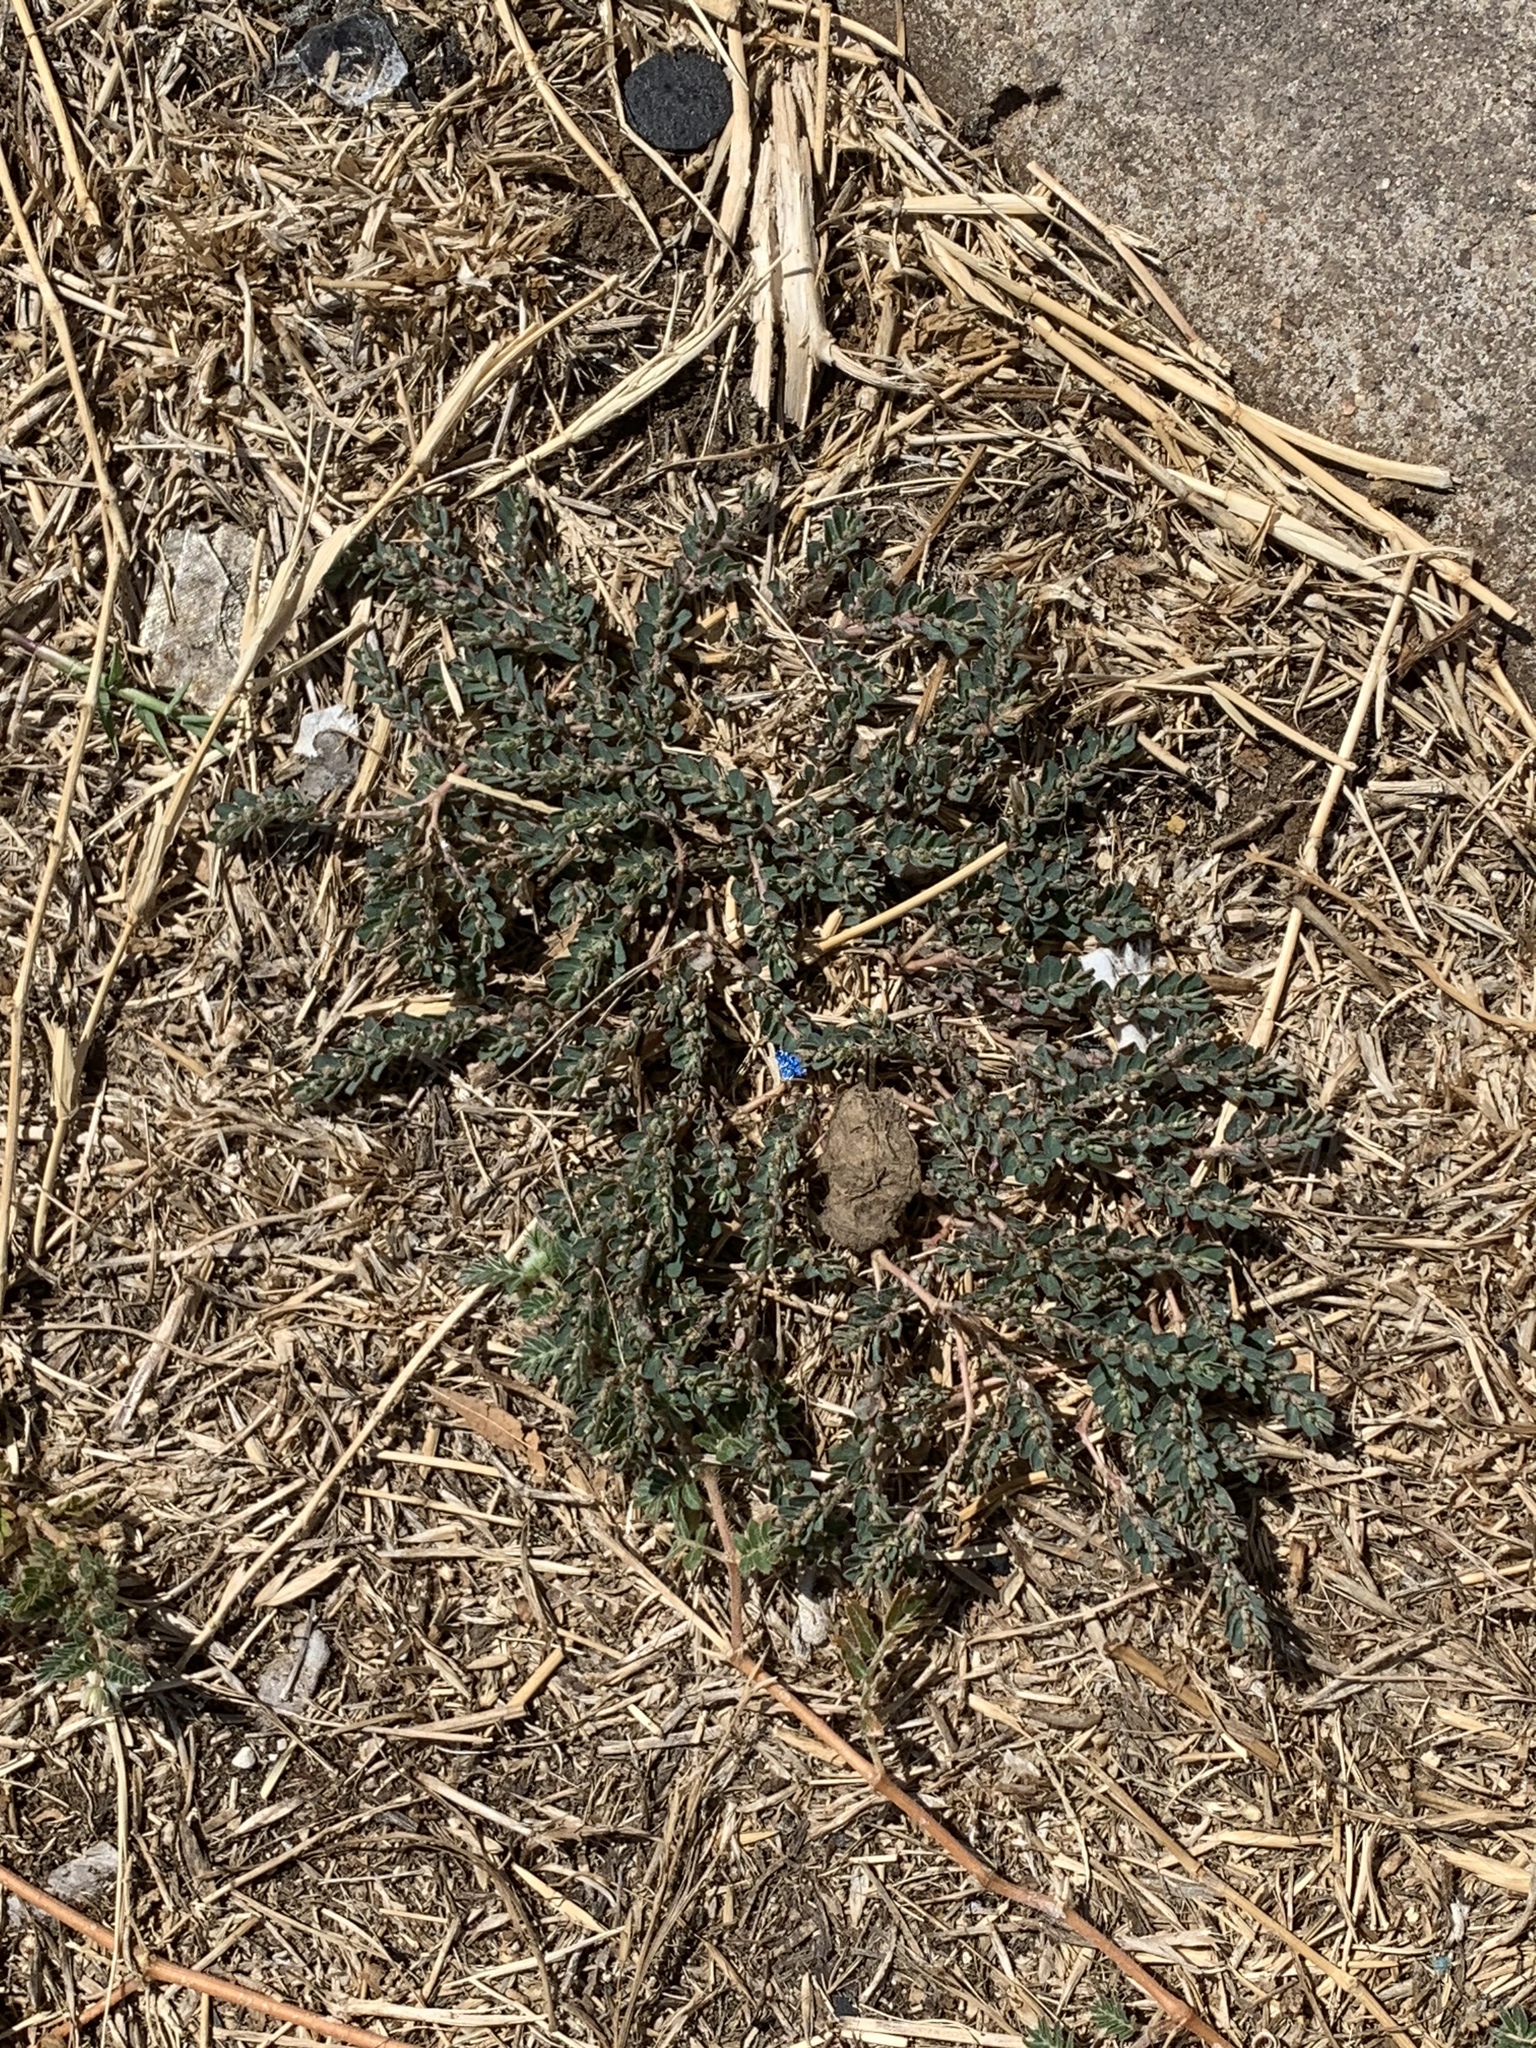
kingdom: Plantae
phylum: Tracheophyta
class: Magnoliopsida
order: Malpighiales
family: Euphorbiaceae
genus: Euphorbia
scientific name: Euphorbia prostrata
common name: Prostrate sandmat
